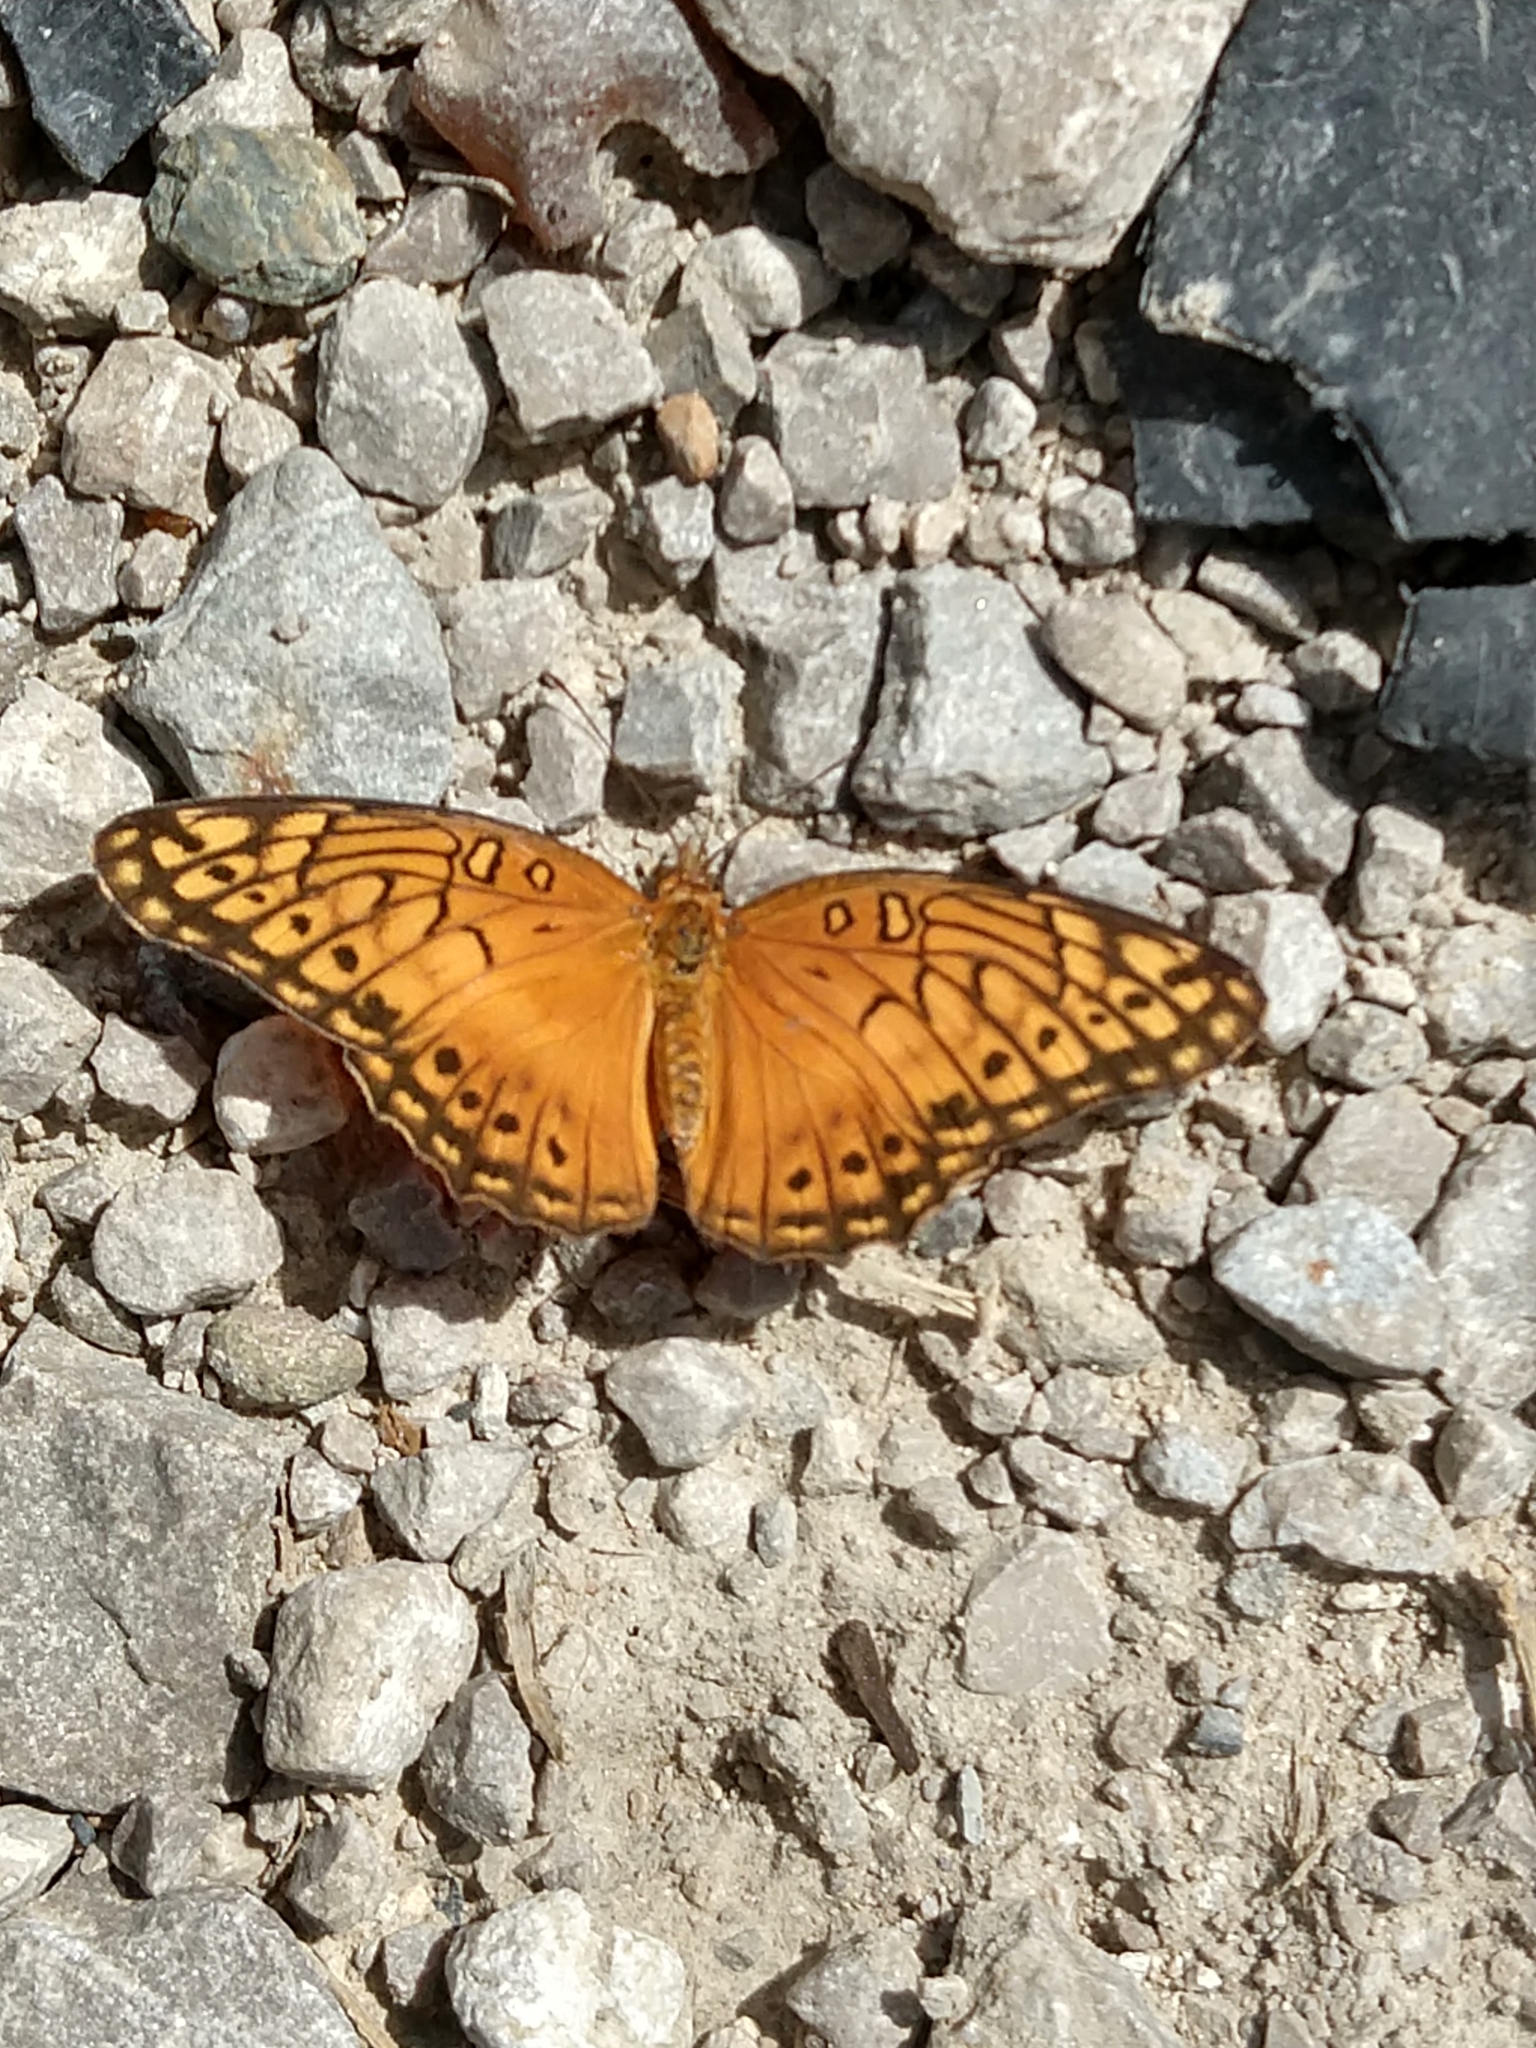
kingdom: Animalia
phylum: Arthropoda
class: Insecta
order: Lepidoptera
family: Nymphalidae
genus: Euptoieta
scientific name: Euptoieta hegesia
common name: Mexican fritillary
